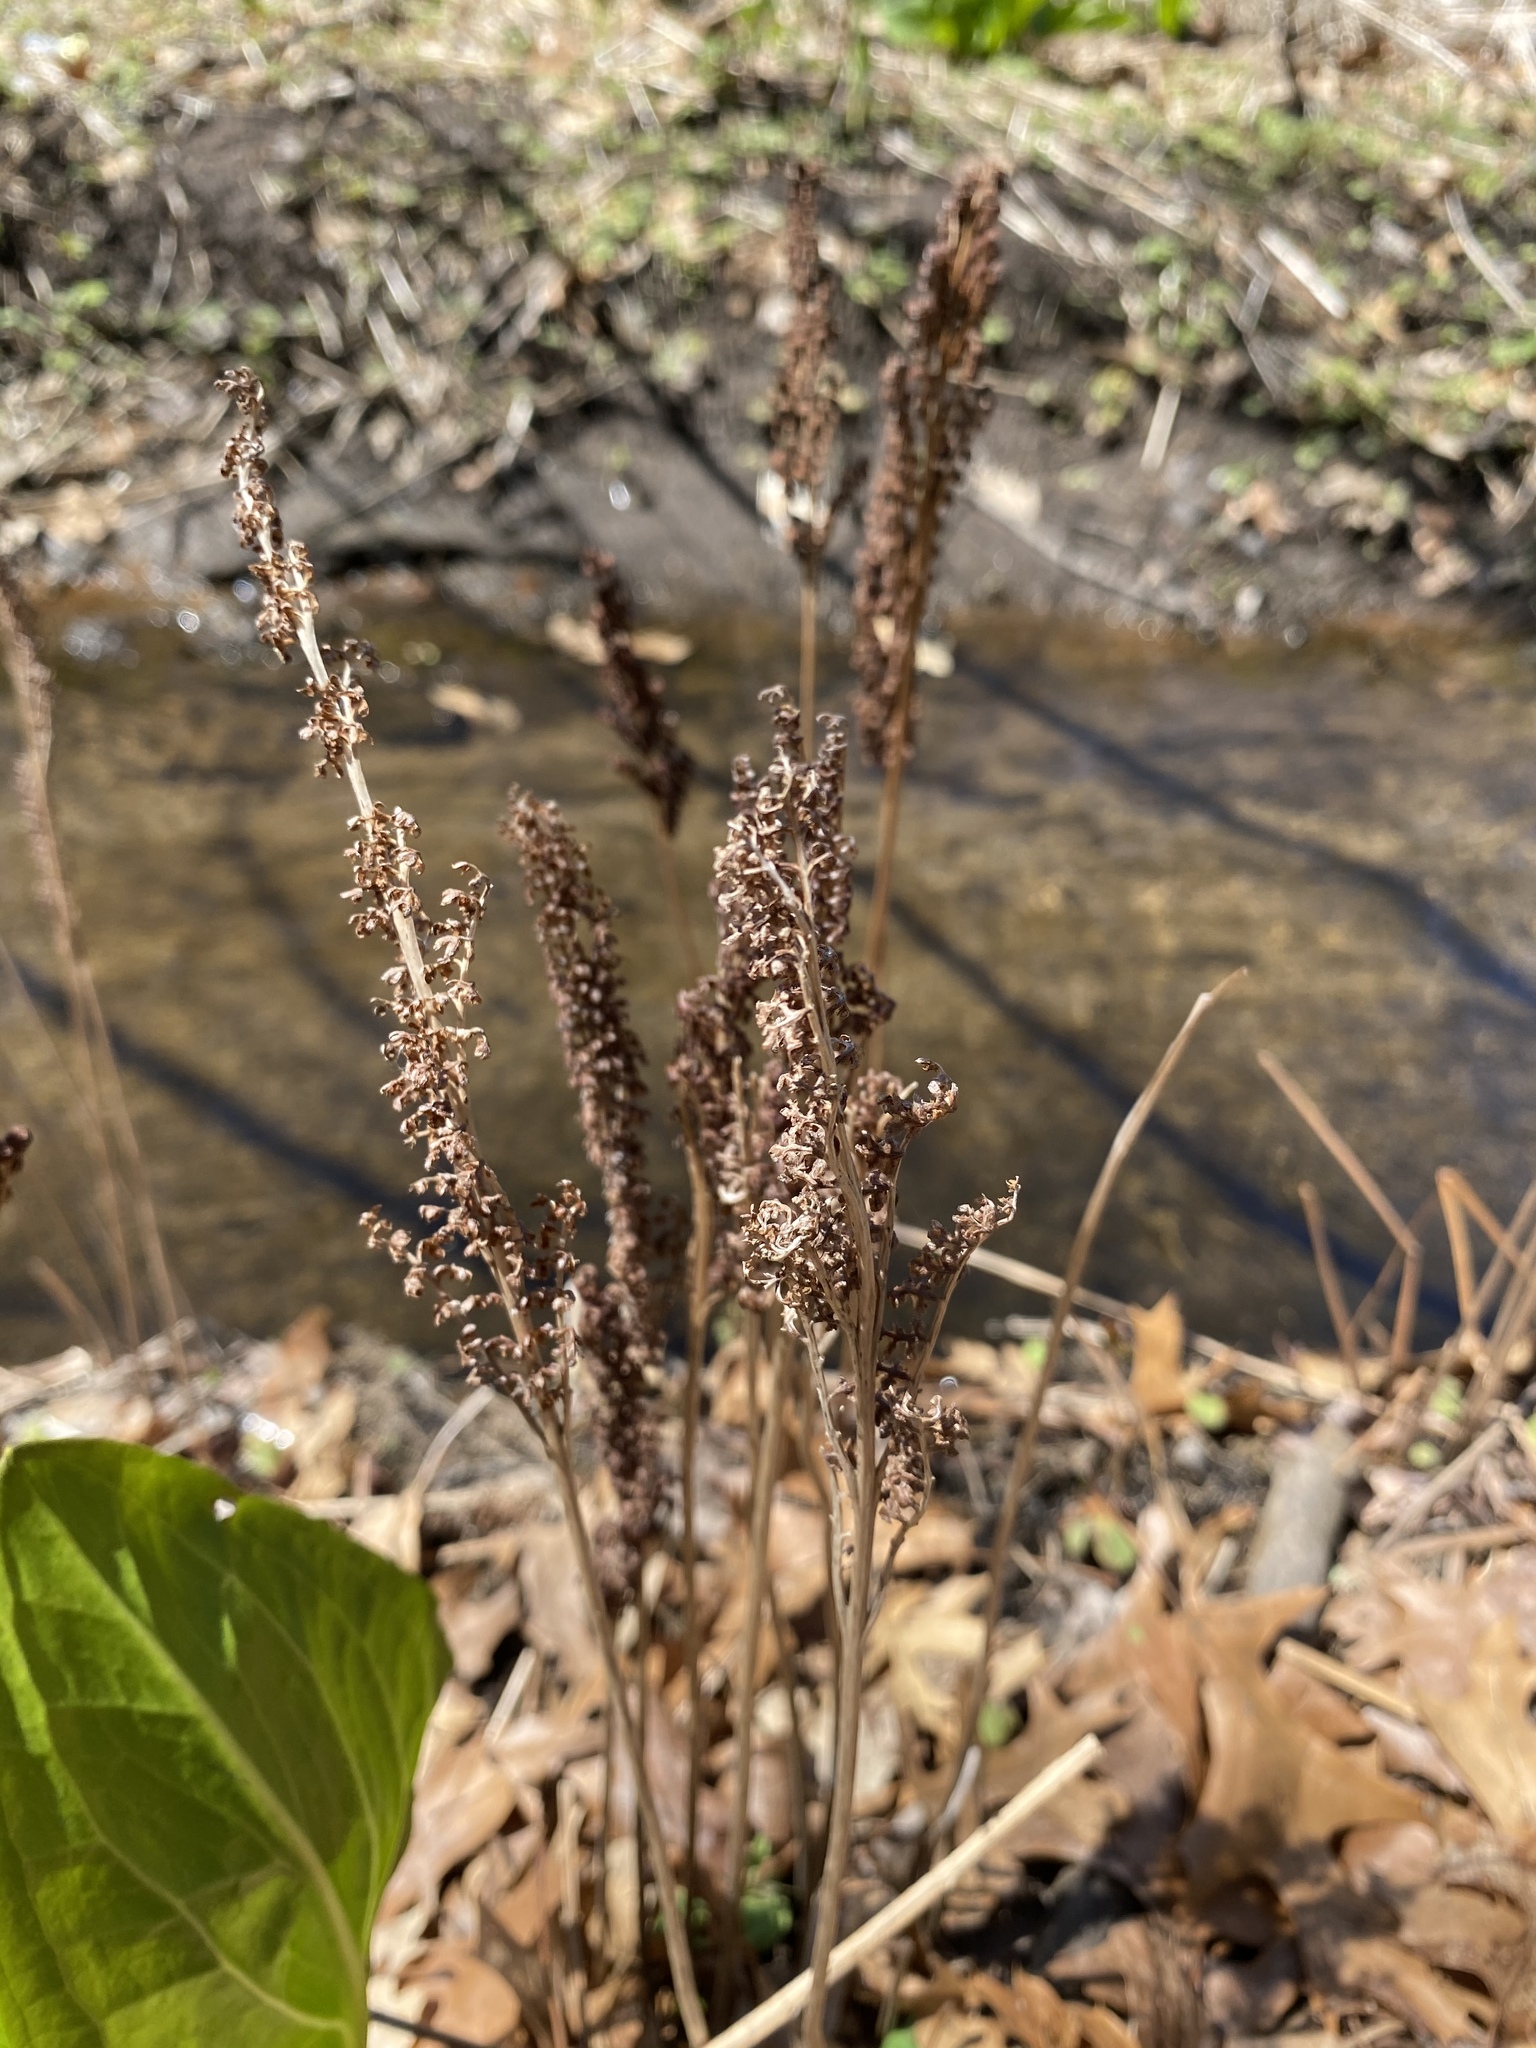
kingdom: Plantae
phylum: Tracheophyta
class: Polypodiopsida
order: Polypodiales
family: Onocleaceae
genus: Onoclea
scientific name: Onoclea sensibilis
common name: Sensitive fern
